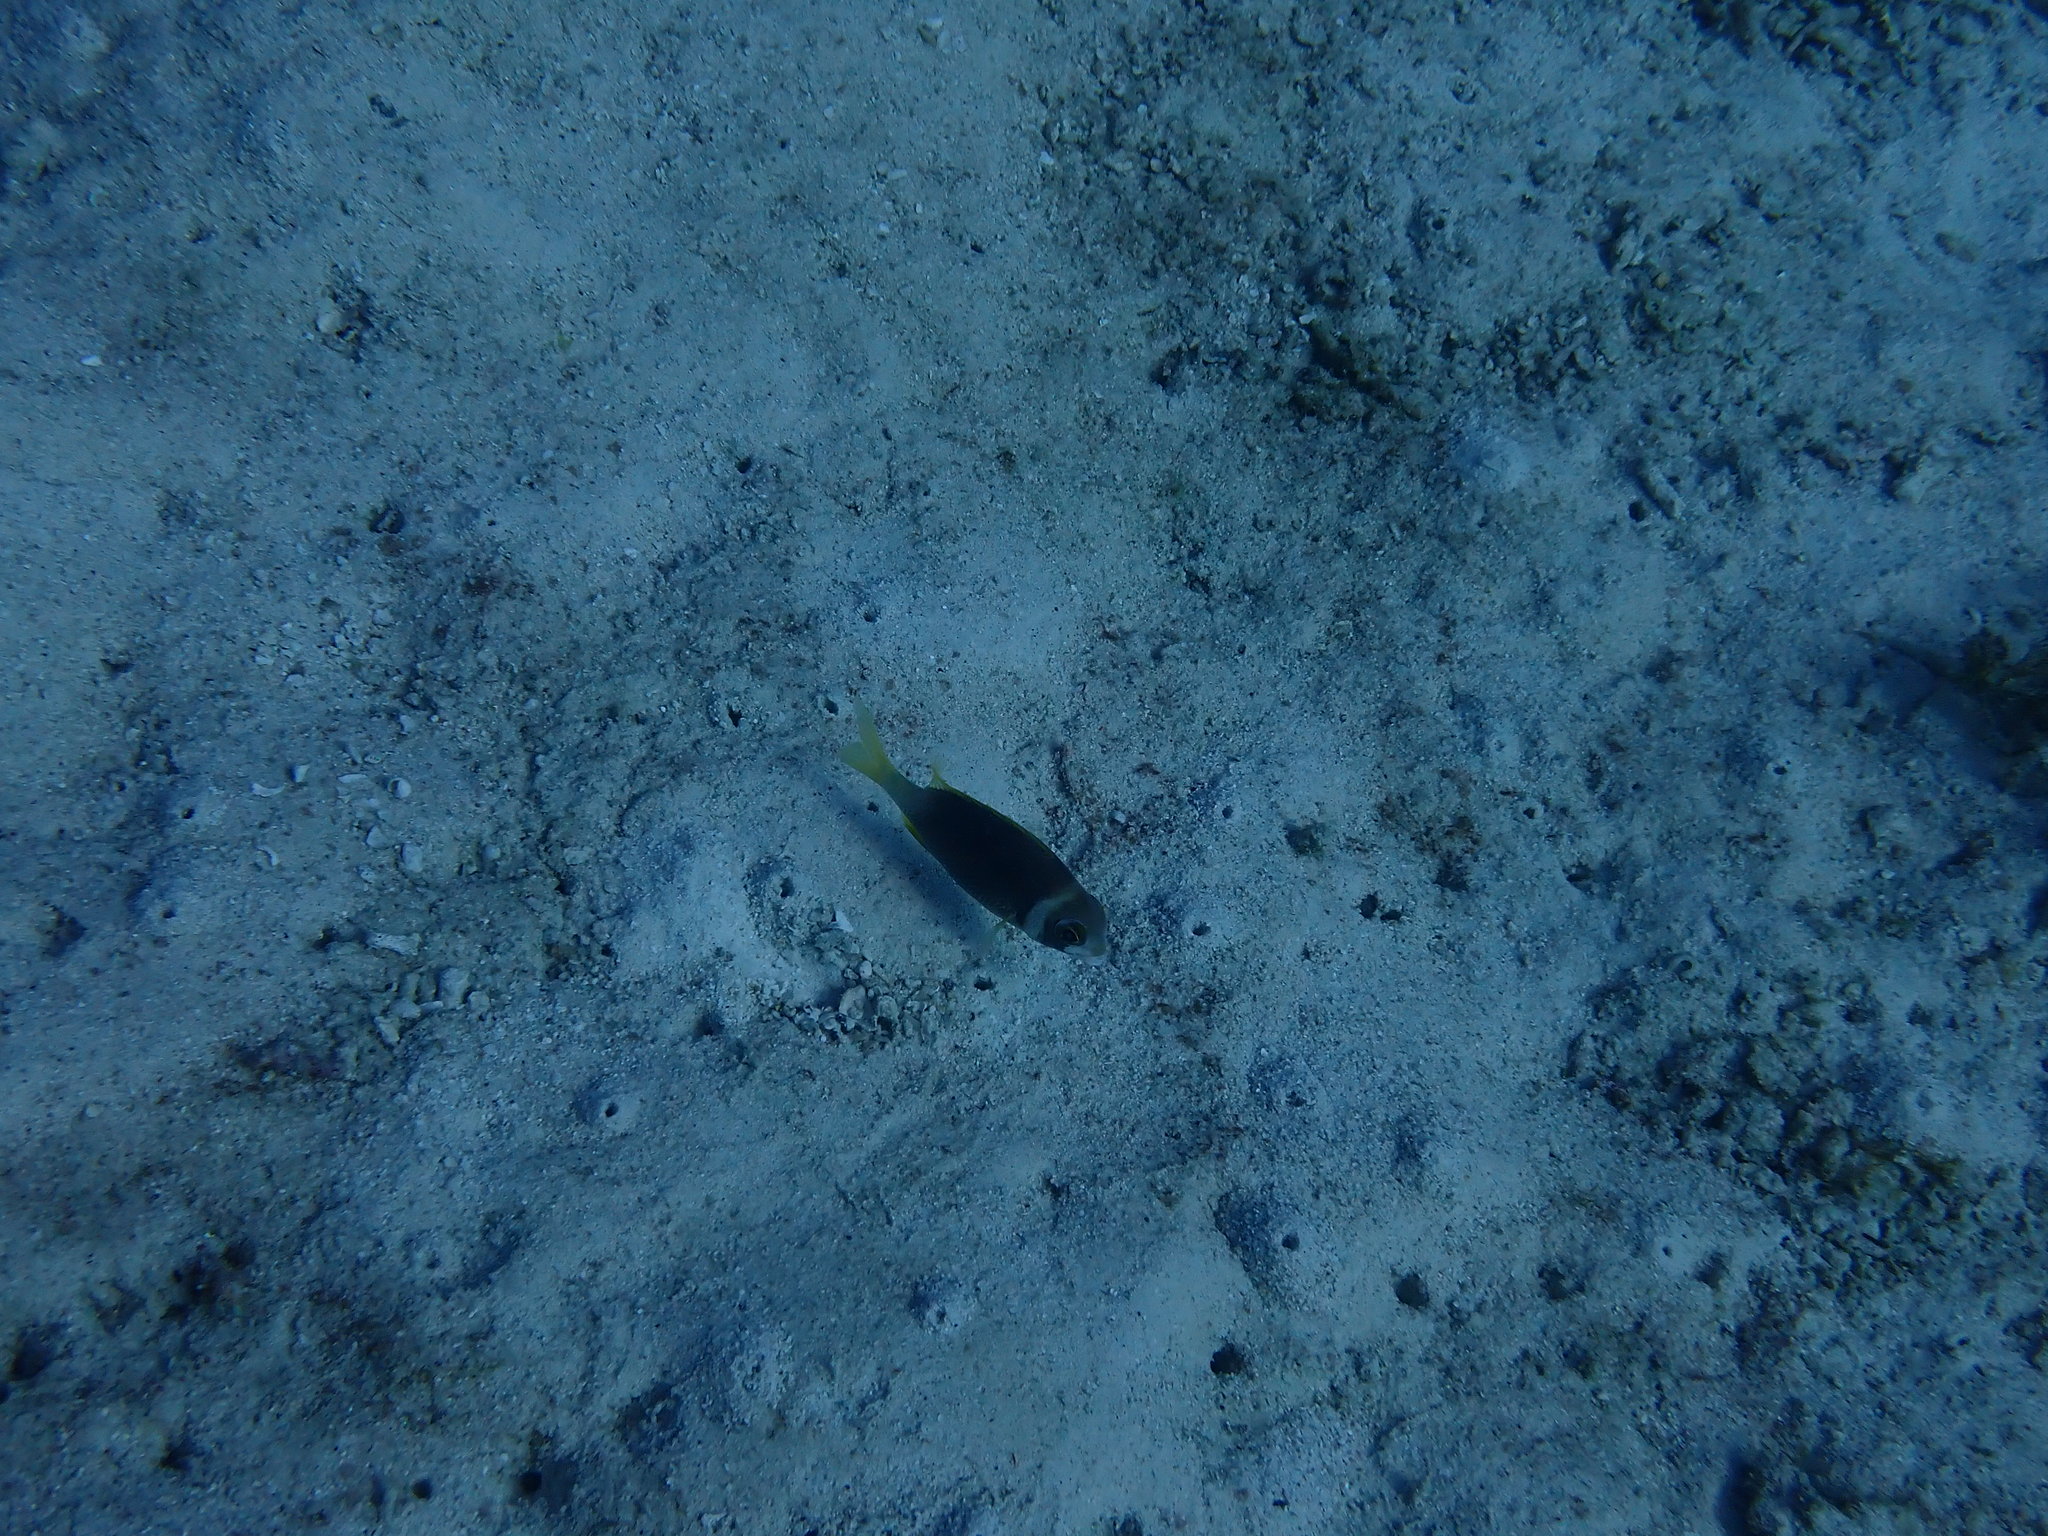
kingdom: Animalia
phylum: Chordata
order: Perciformes
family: Nemipteridae
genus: Scolopsis
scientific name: Scolopsis vosmeri
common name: Whitecheek monocle bream
